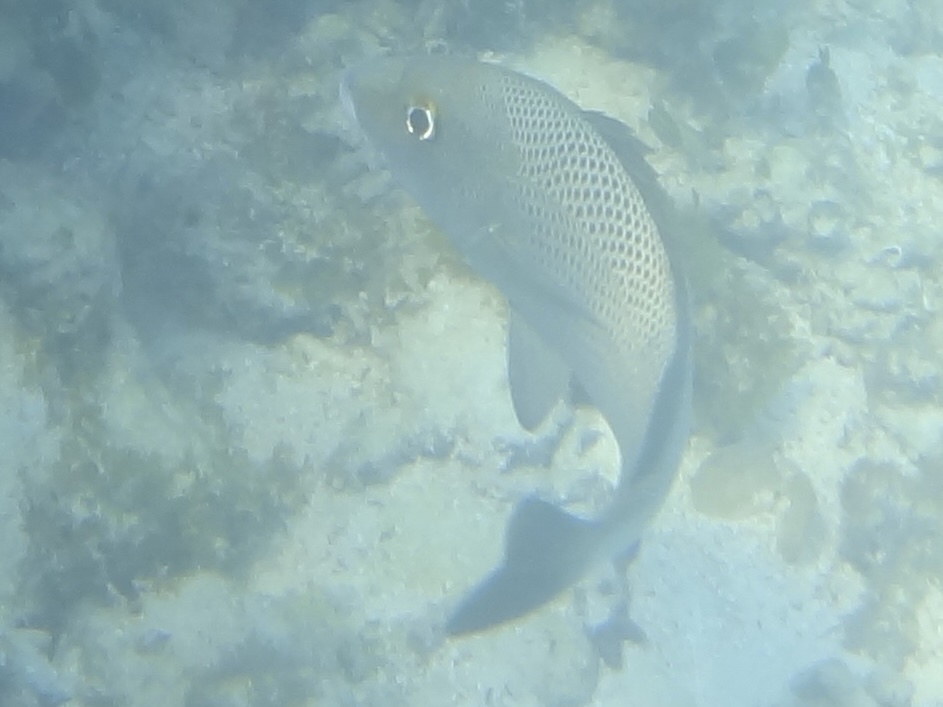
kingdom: Animalia
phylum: Chordata
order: Perciformes
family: Haemulidae
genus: Haemulon
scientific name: Haemulon parra
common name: Sailor's choice
